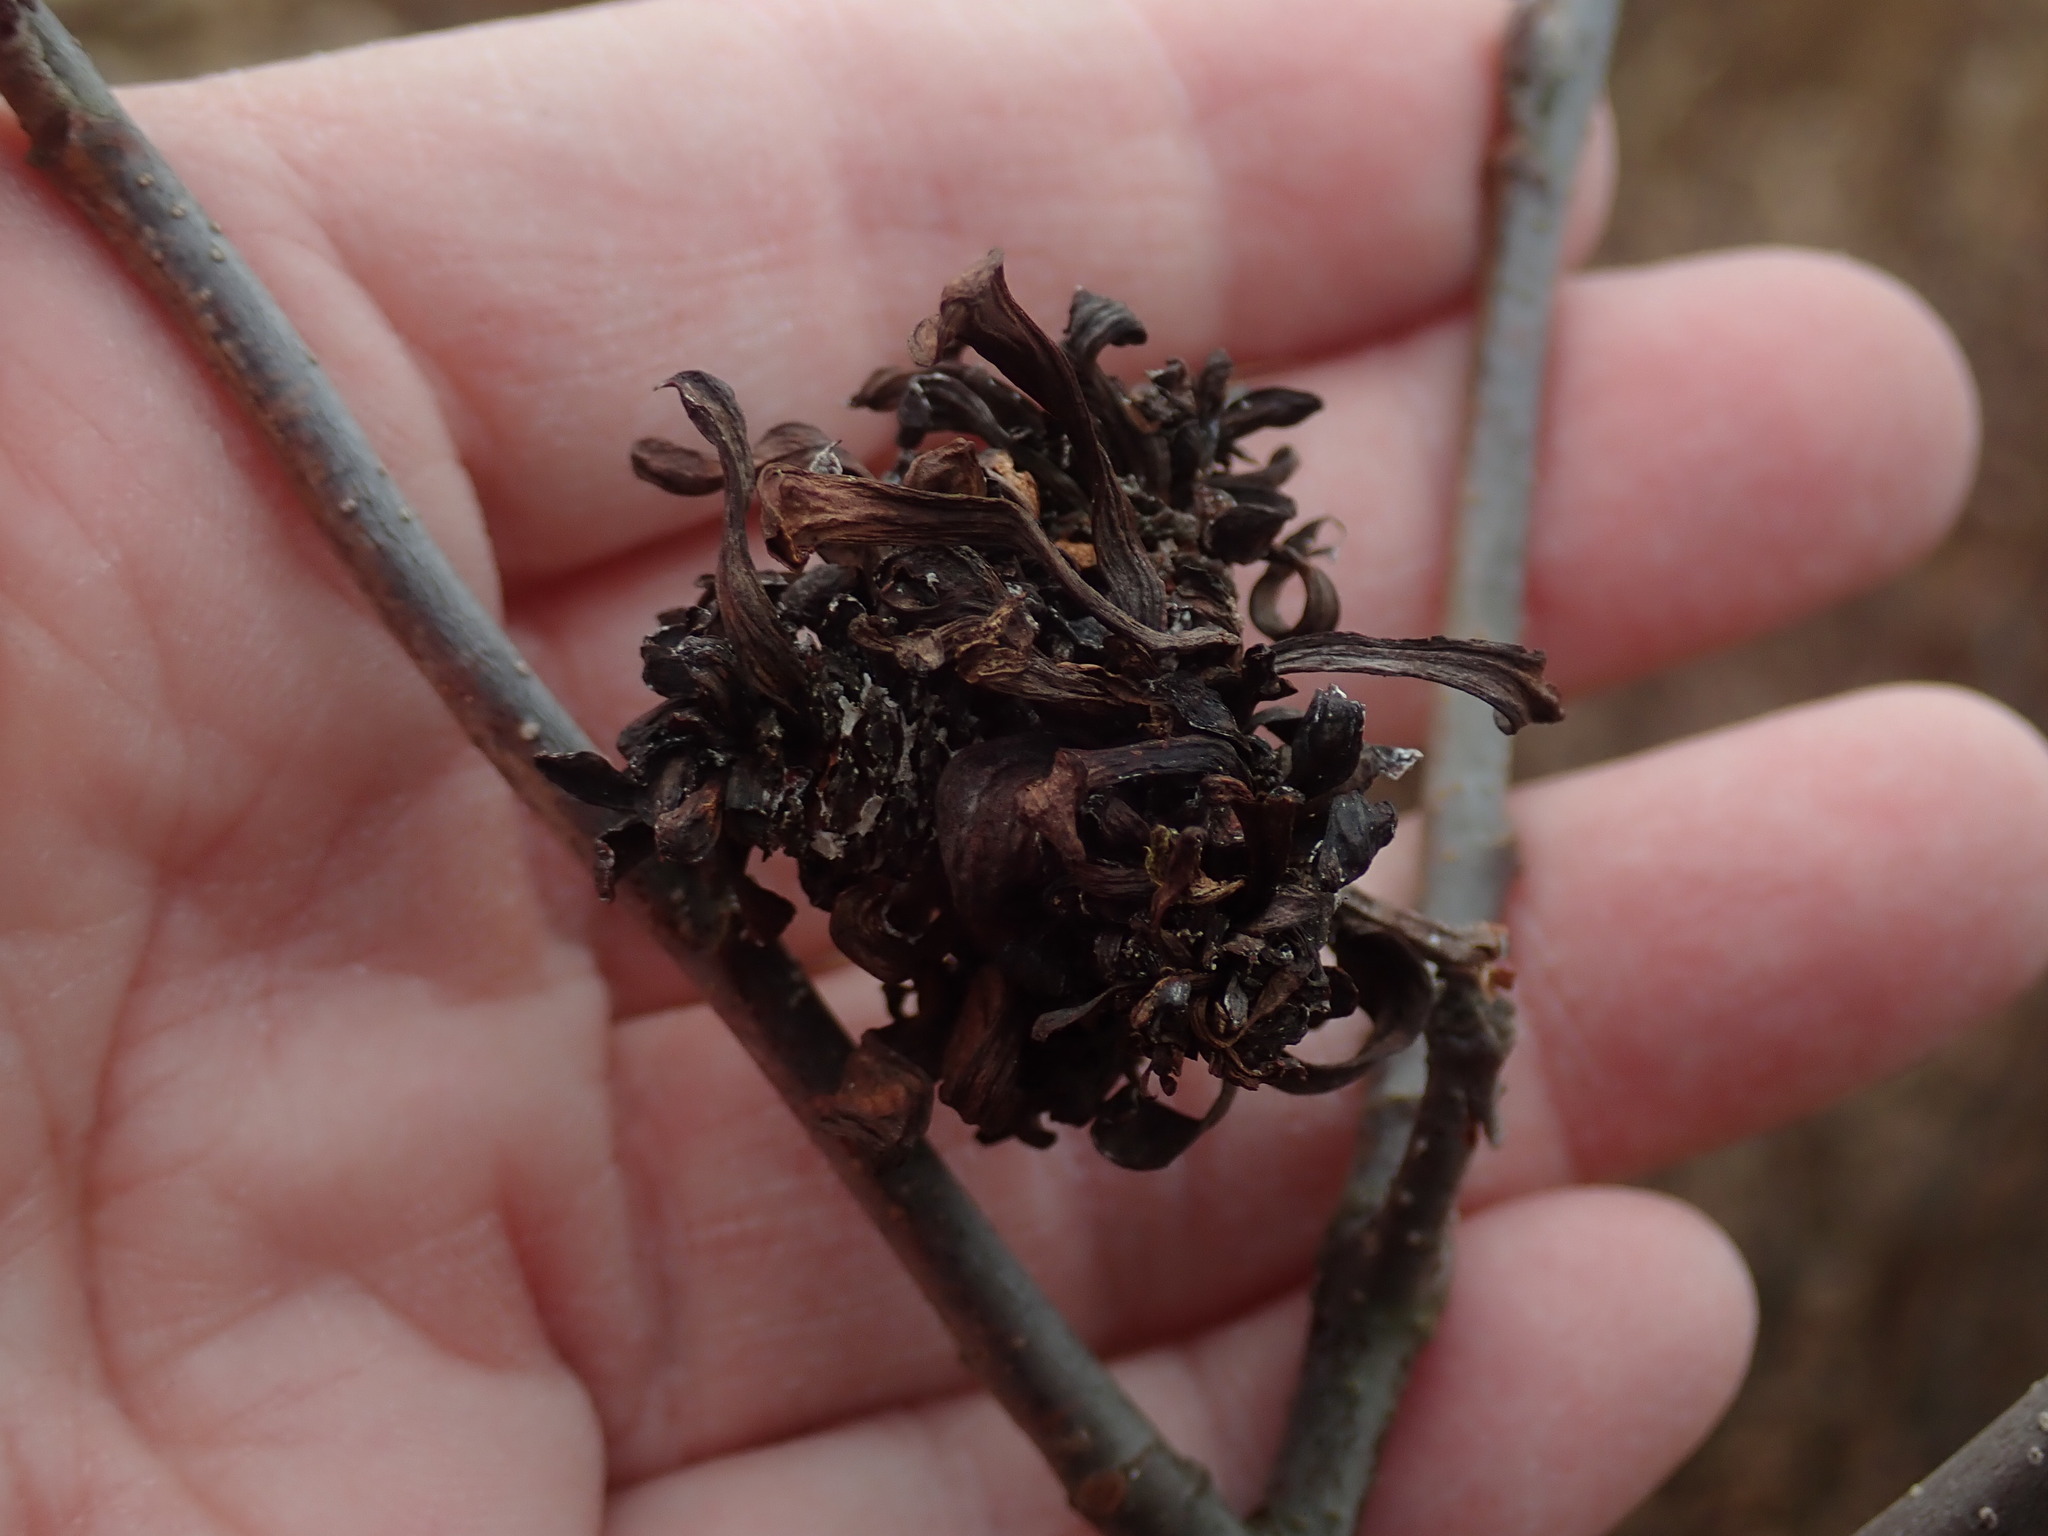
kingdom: Fungi
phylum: Ascomycota
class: Taphrinomycetes
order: Taphrinales
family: Taphrinaceae
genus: Taphrina
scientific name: Taphrina robinsoniana
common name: Eastern american alder tongue gall fungus
